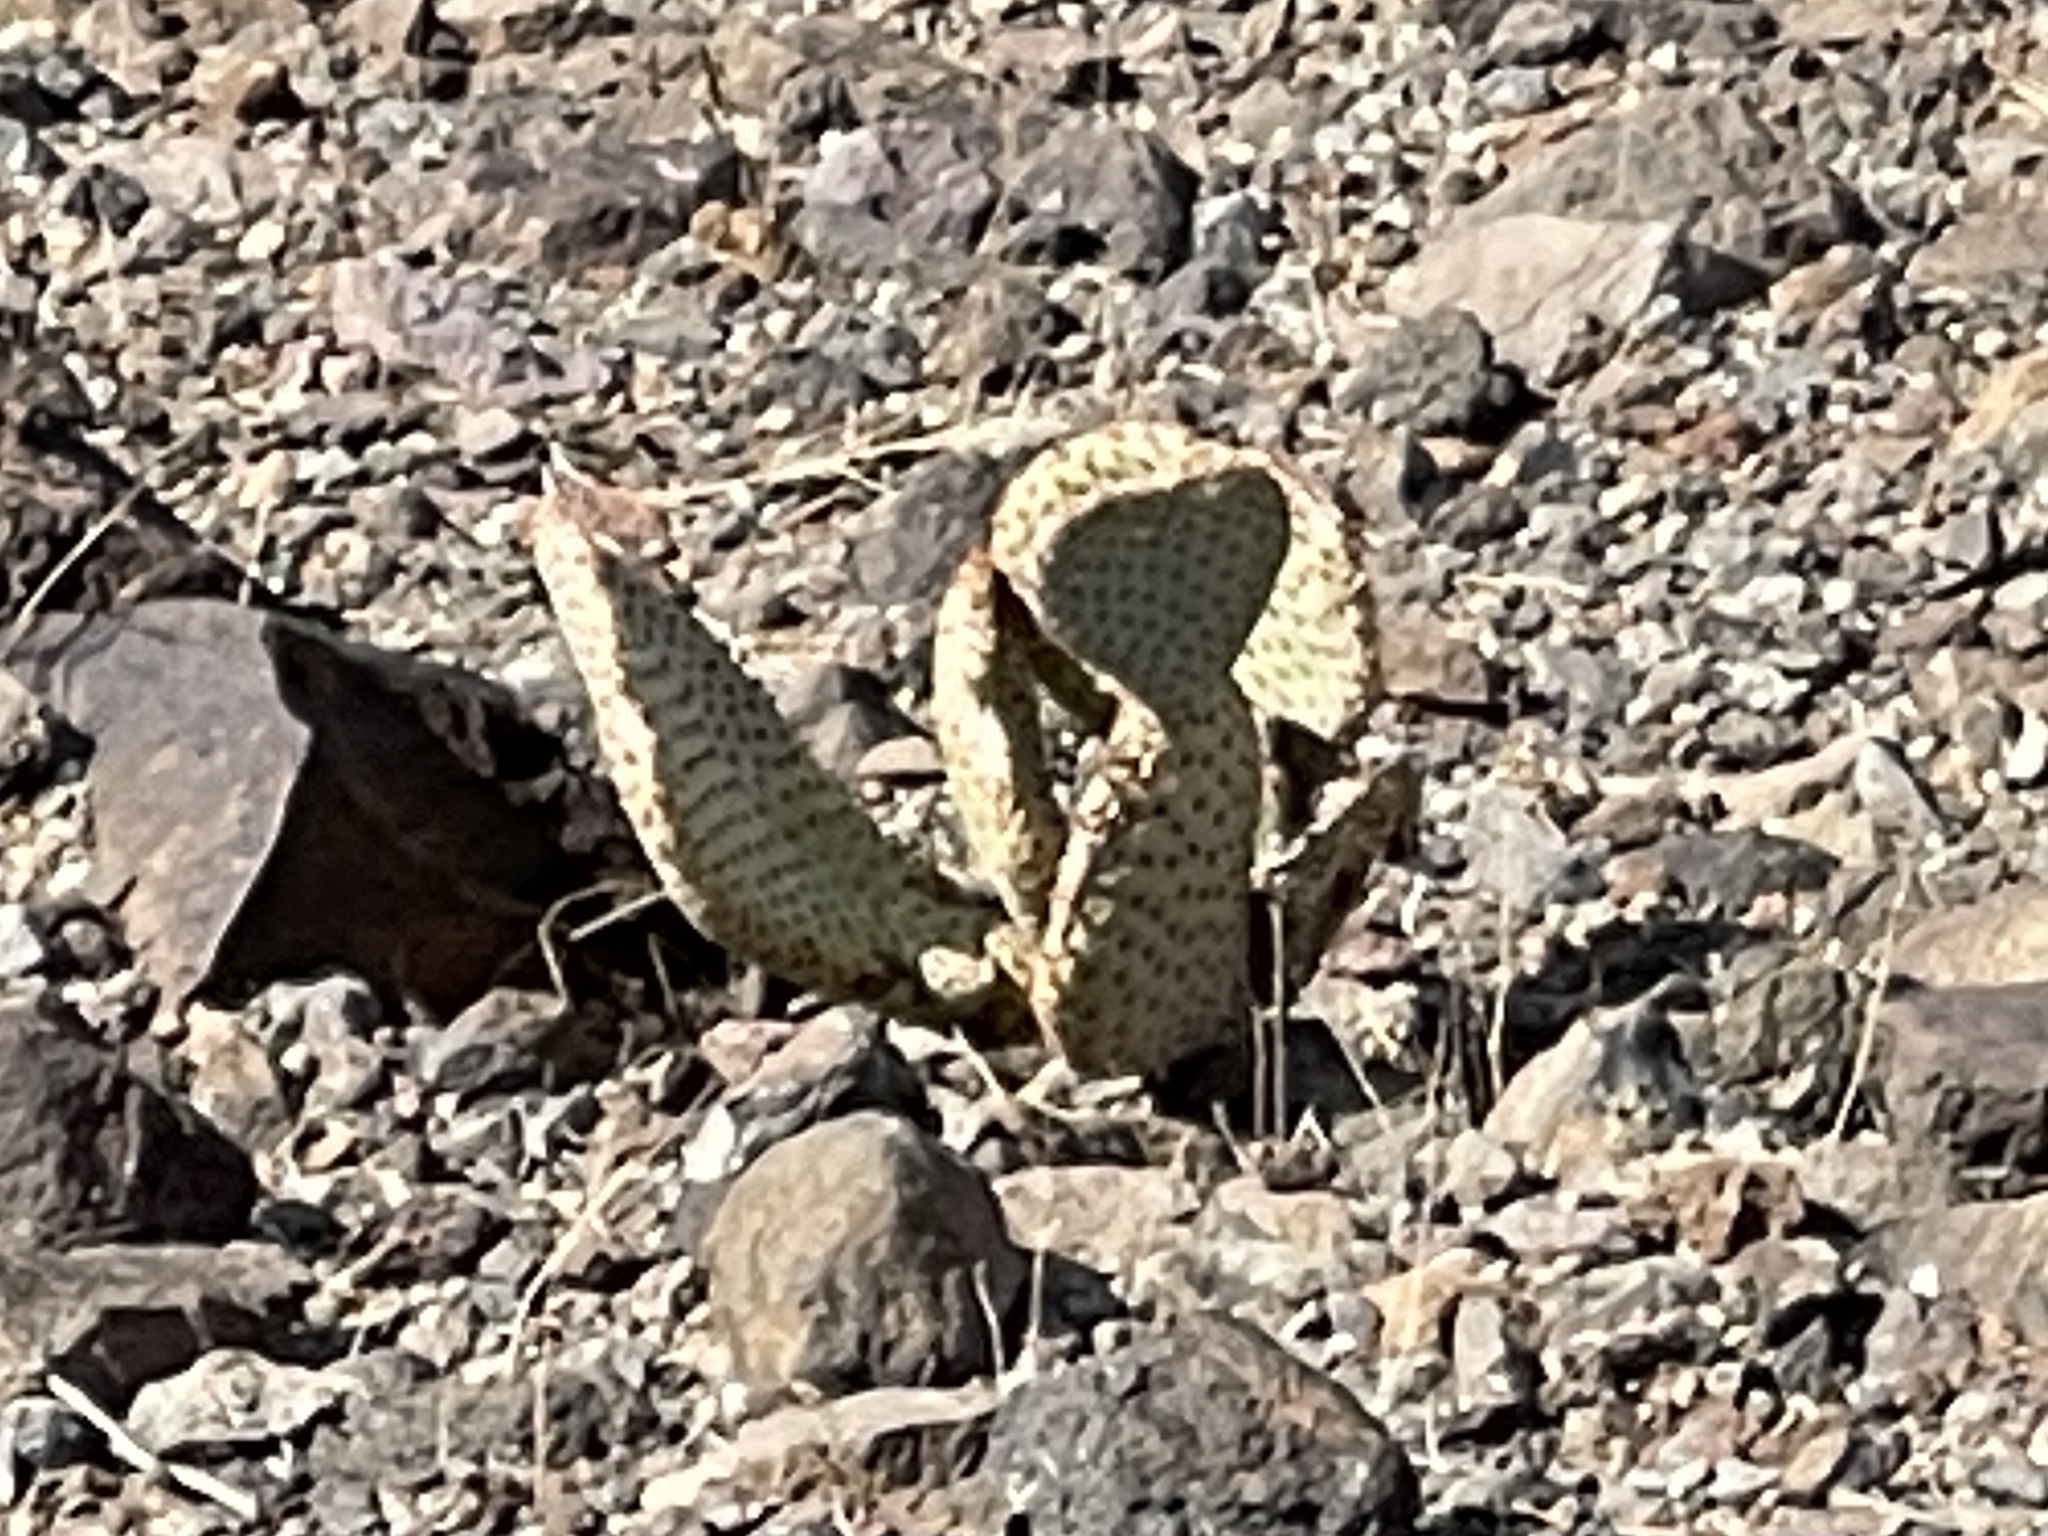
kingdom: Plantae
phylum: Tracheophyta
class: Magnoliopsida
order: Caryophyllales
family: Cactaceae
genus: Opuntia
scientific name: Opuntia basilaris
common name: Beavertail prickly-pear
